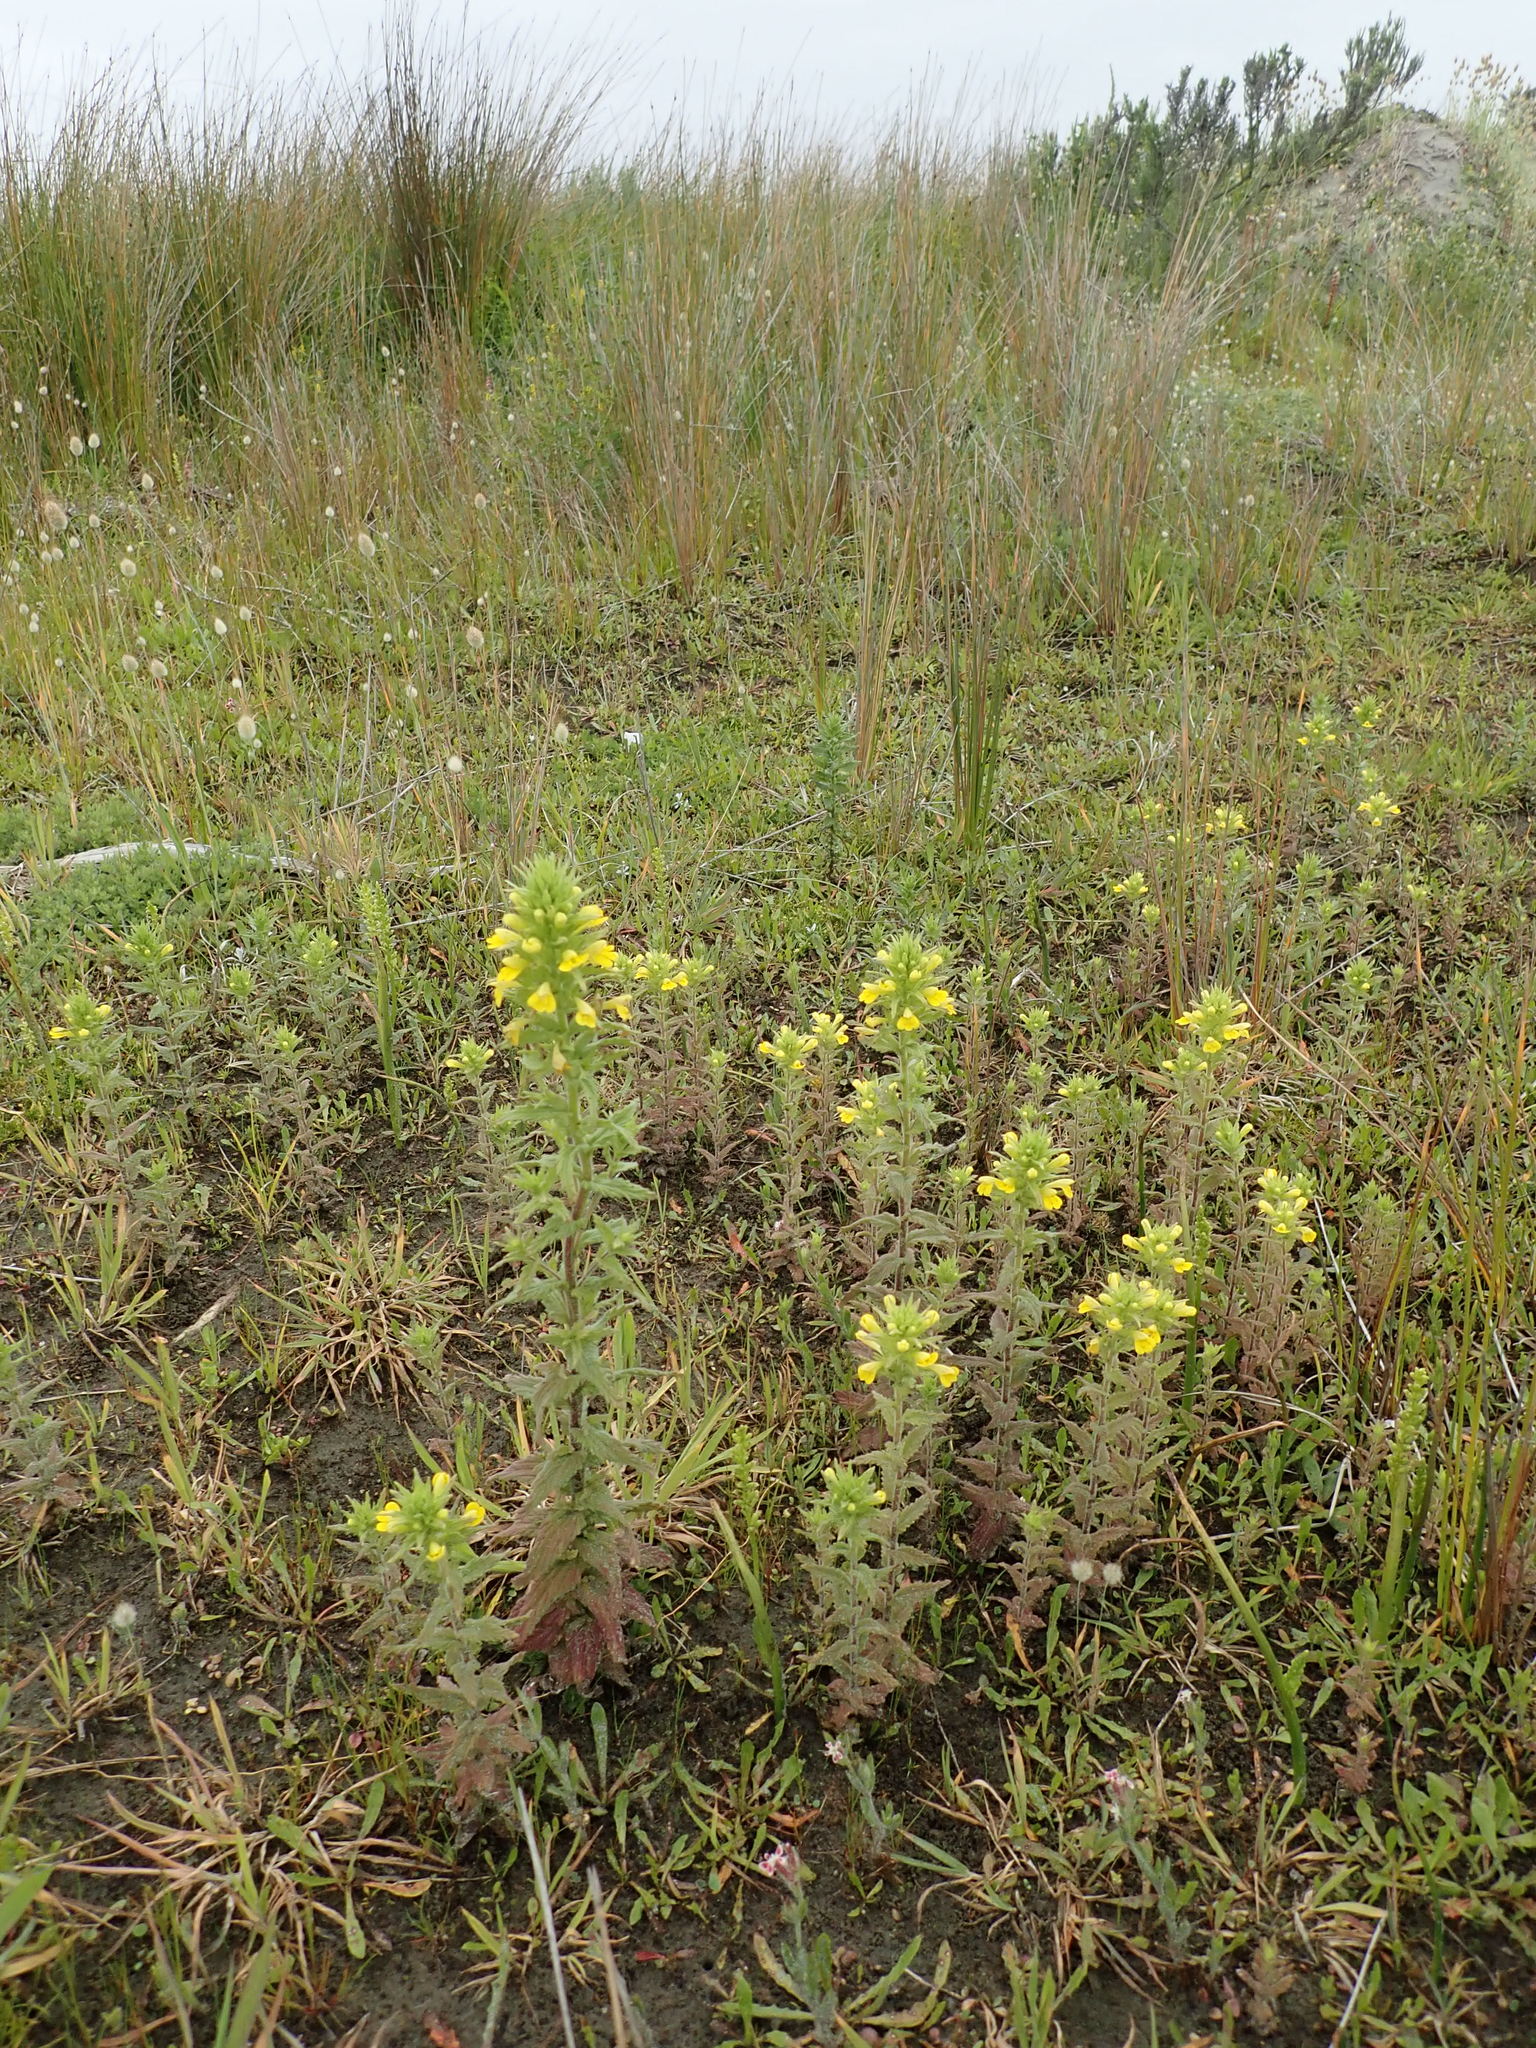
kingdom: Plantae
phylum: Tracheophyta
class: Magnoliopsida
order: Lamiales
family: Orobanchaceae
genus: Bellardia
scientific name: Bellardia viscosa
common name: Sticky parentucellia
